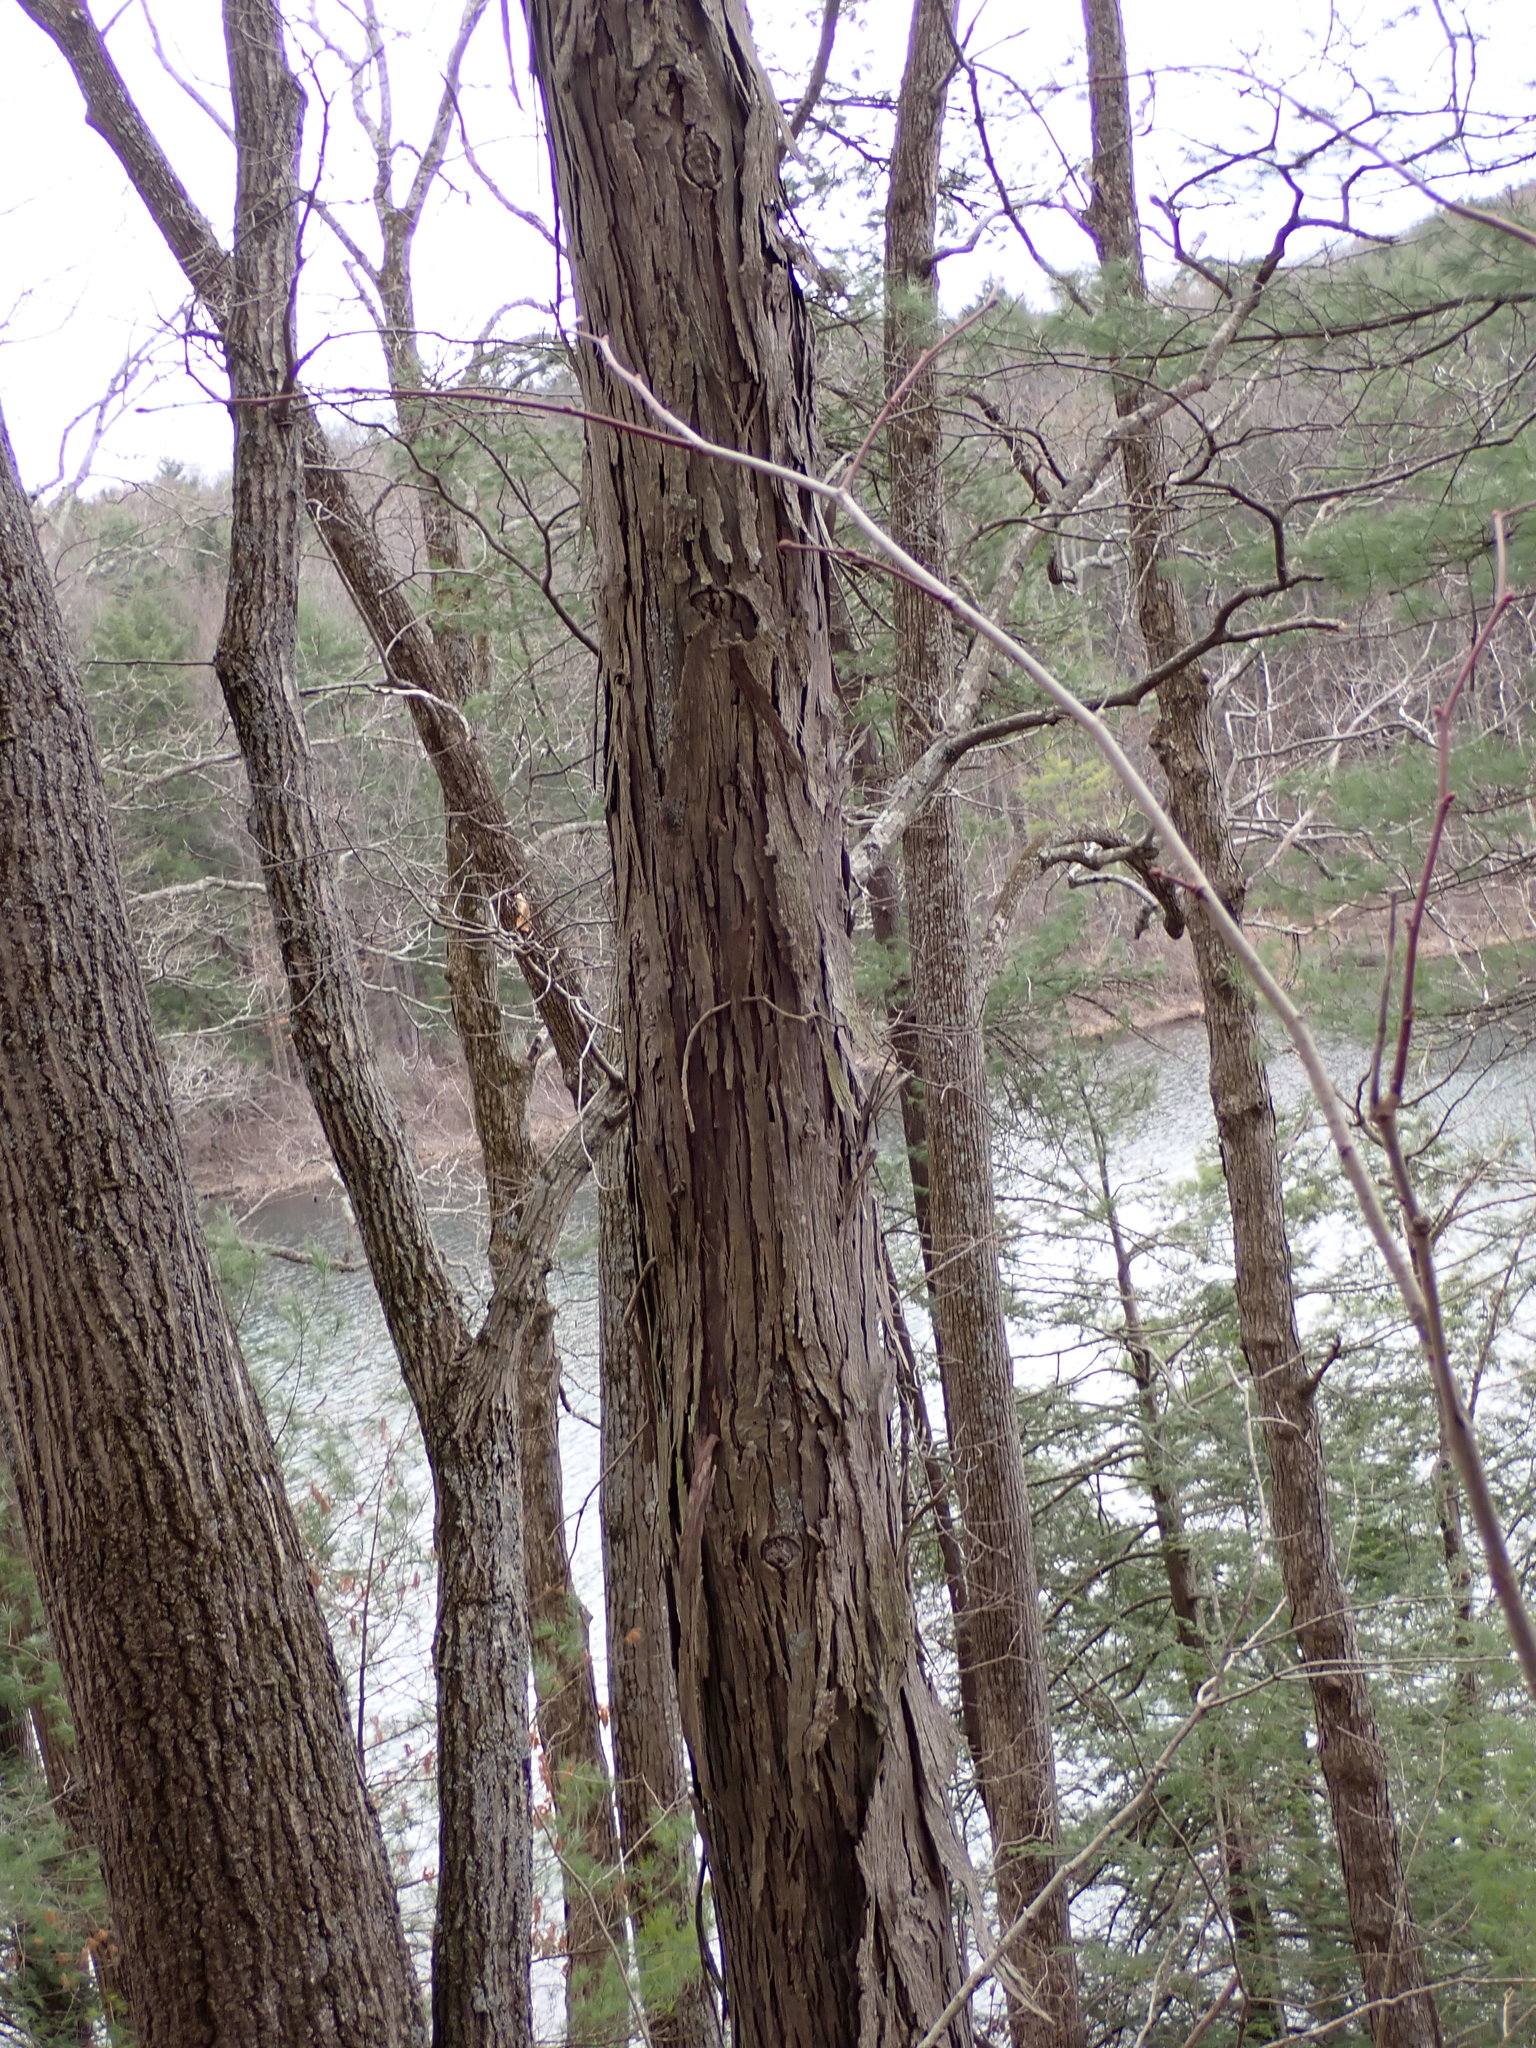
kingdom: Plantae
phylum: Tracheophyta
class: Magnoliopsida
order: Fagales
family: Juglandaceae
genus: Carya
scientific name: Carya ovata
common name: Shagbark hickory
